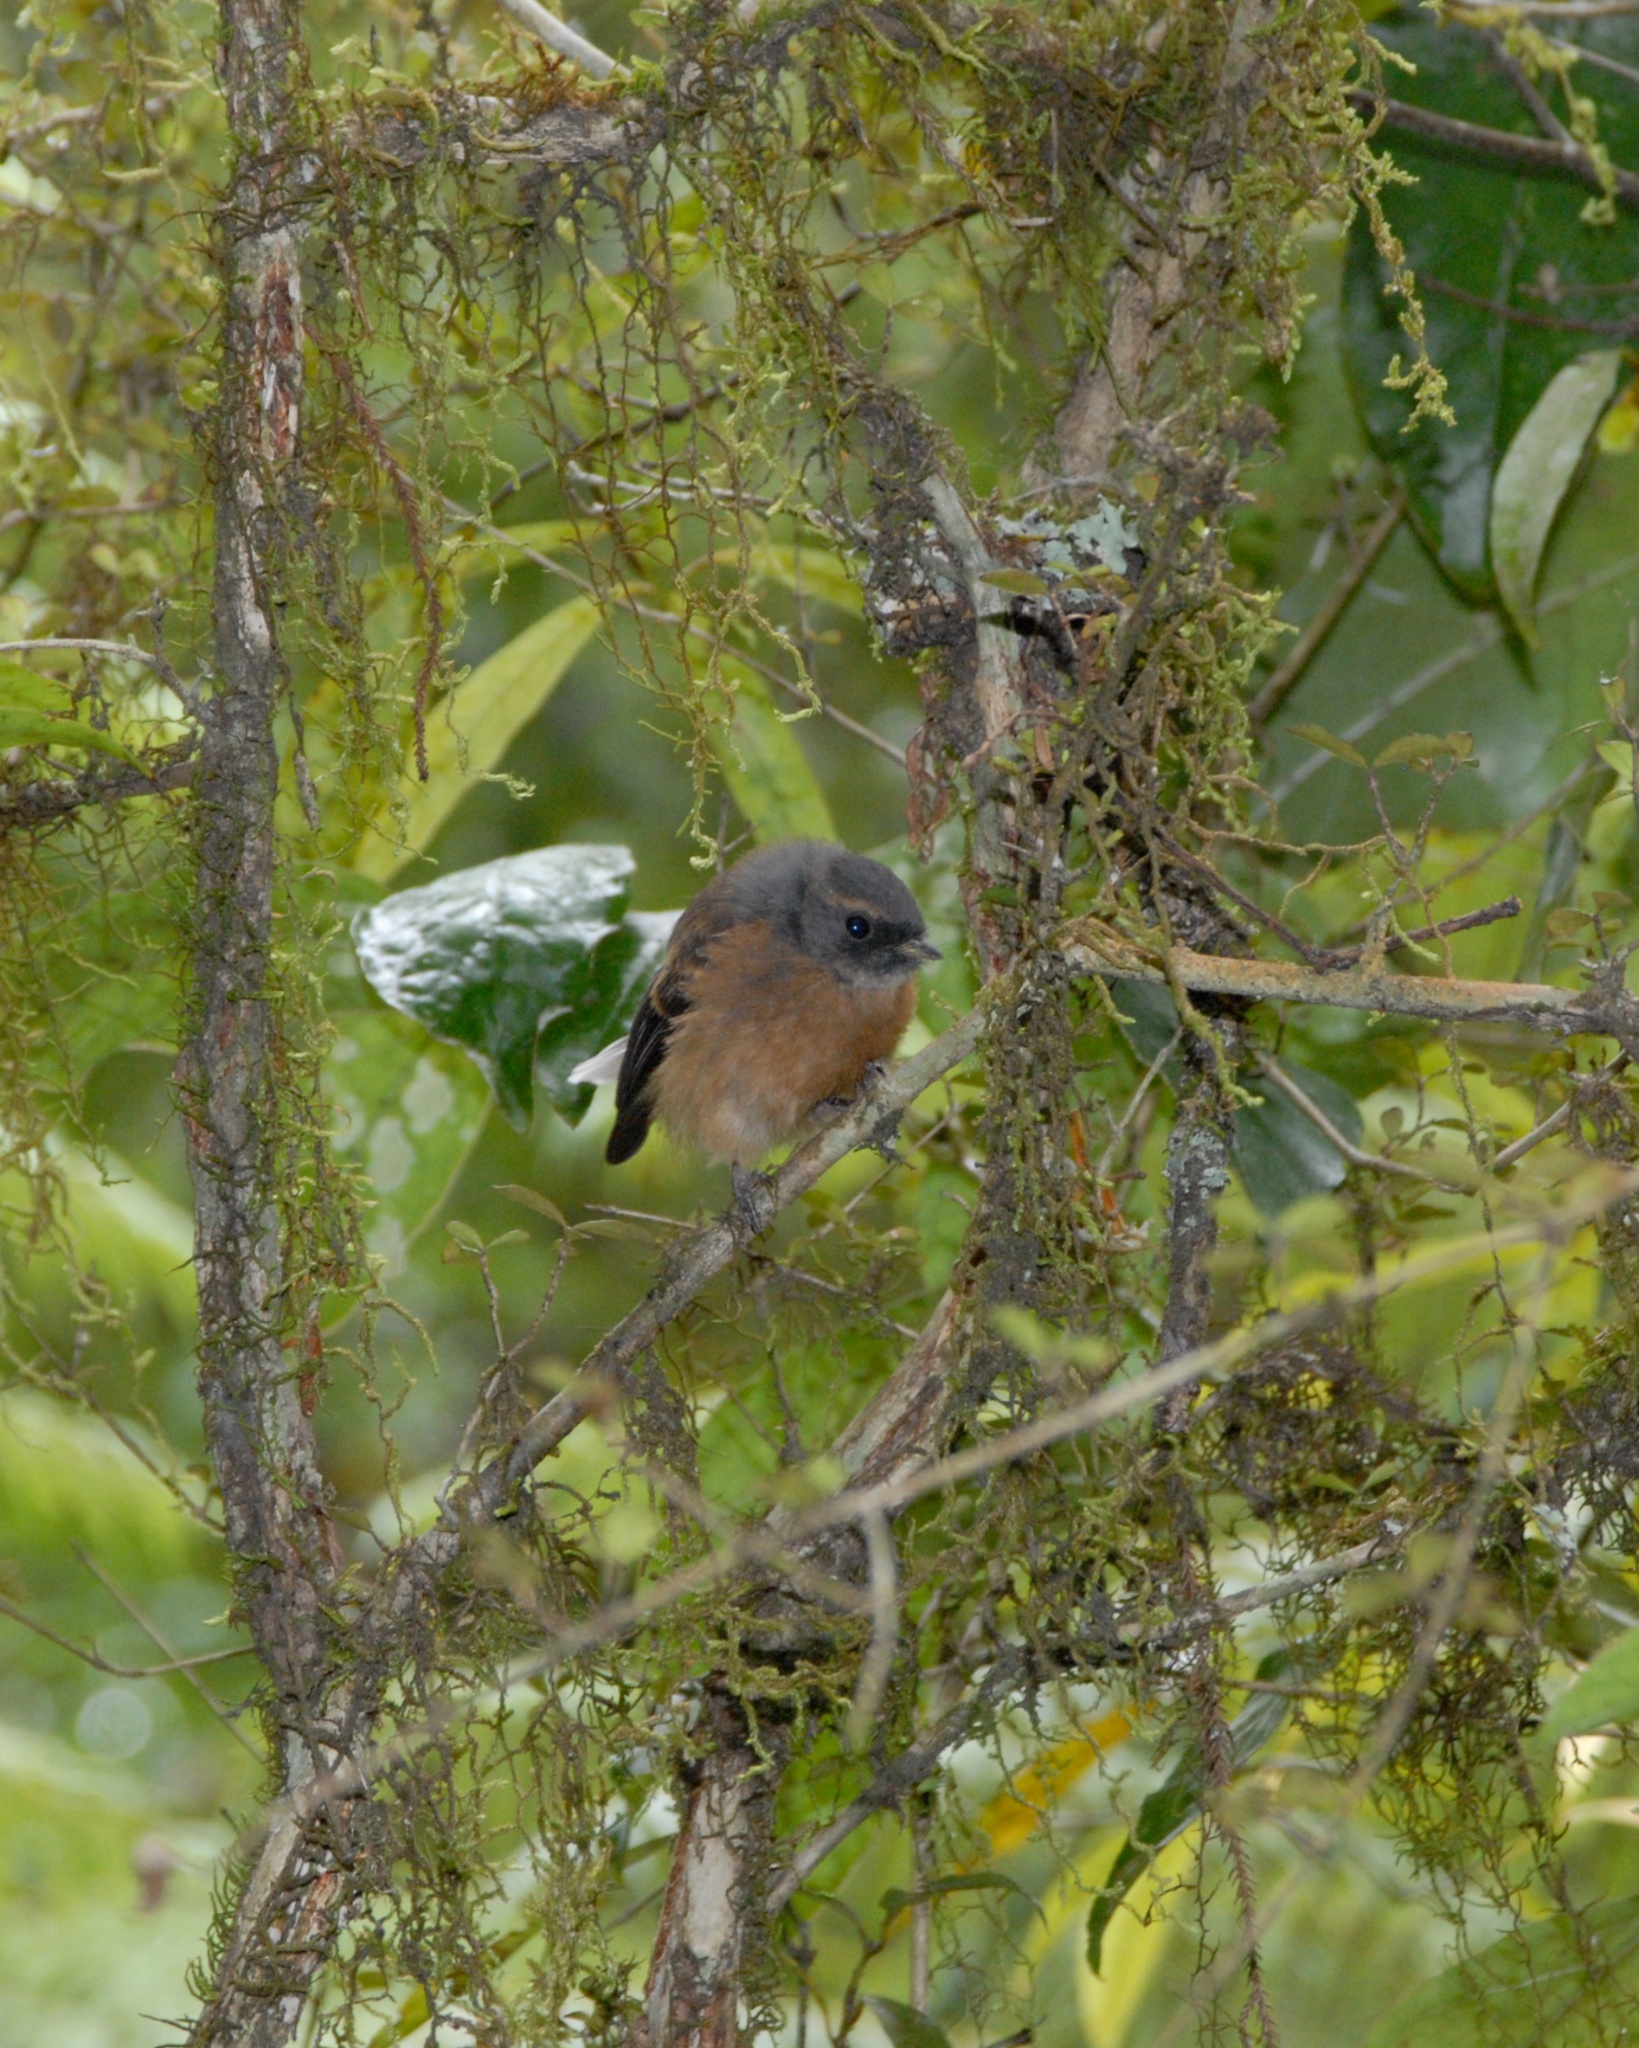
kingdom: Animalia
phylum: Chordata
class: Aves
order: Passeriformes
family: Rhipiduridae
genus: Rhipidura
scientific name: Rhipidura fuliginosa
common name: New zealand fantail
